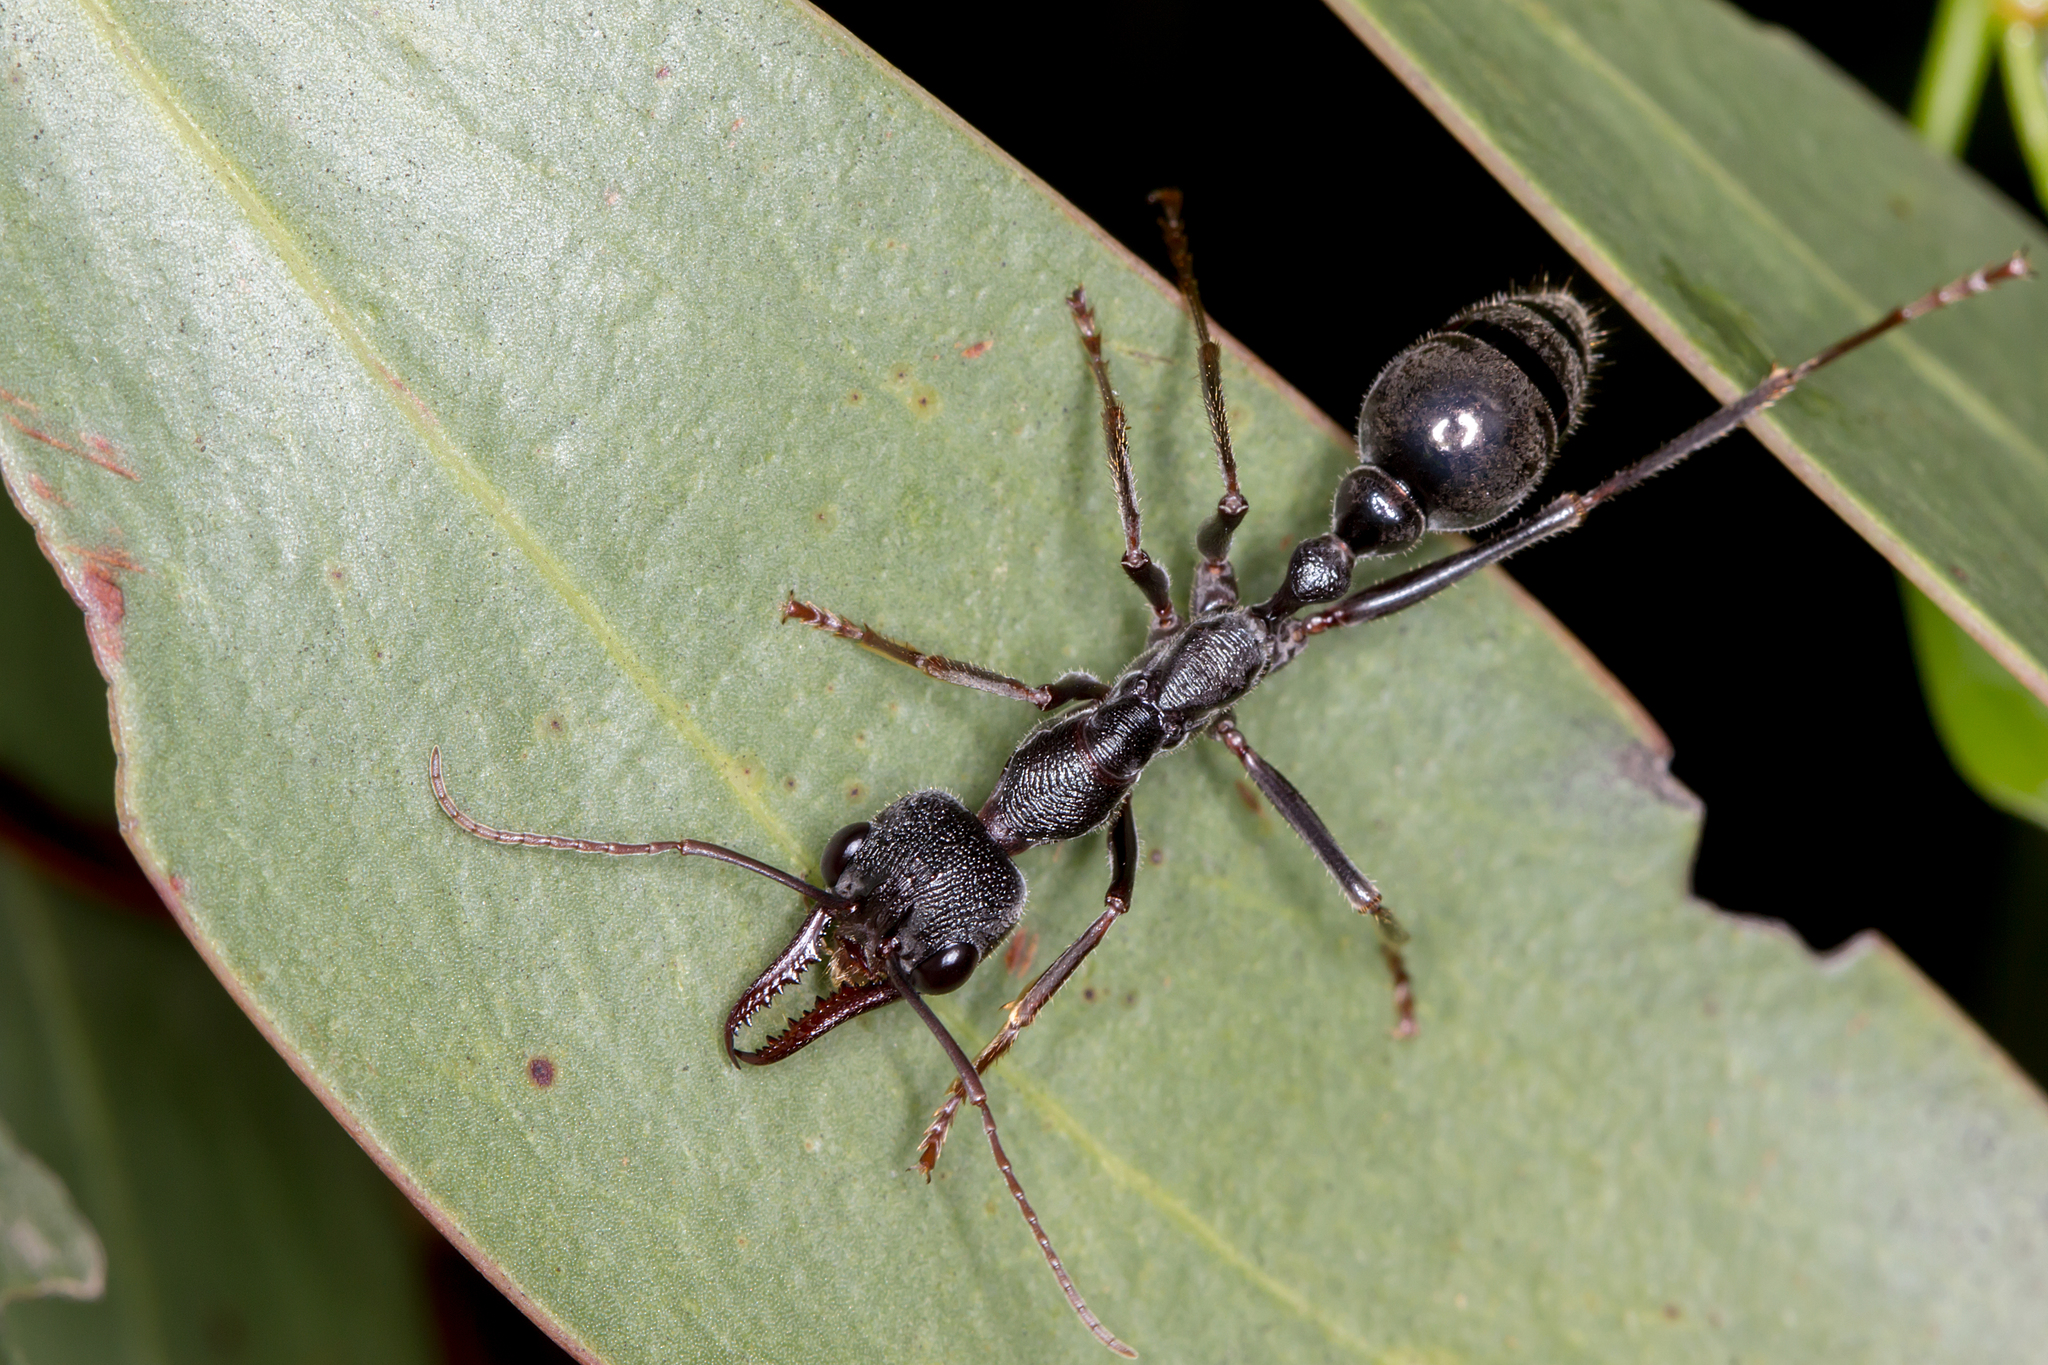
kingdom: Animalia
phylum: Arthropoda
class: Insecta
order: Hymenoptera
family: Formicidae
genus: Myrmecia
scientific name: Myrmecia pyriformis
